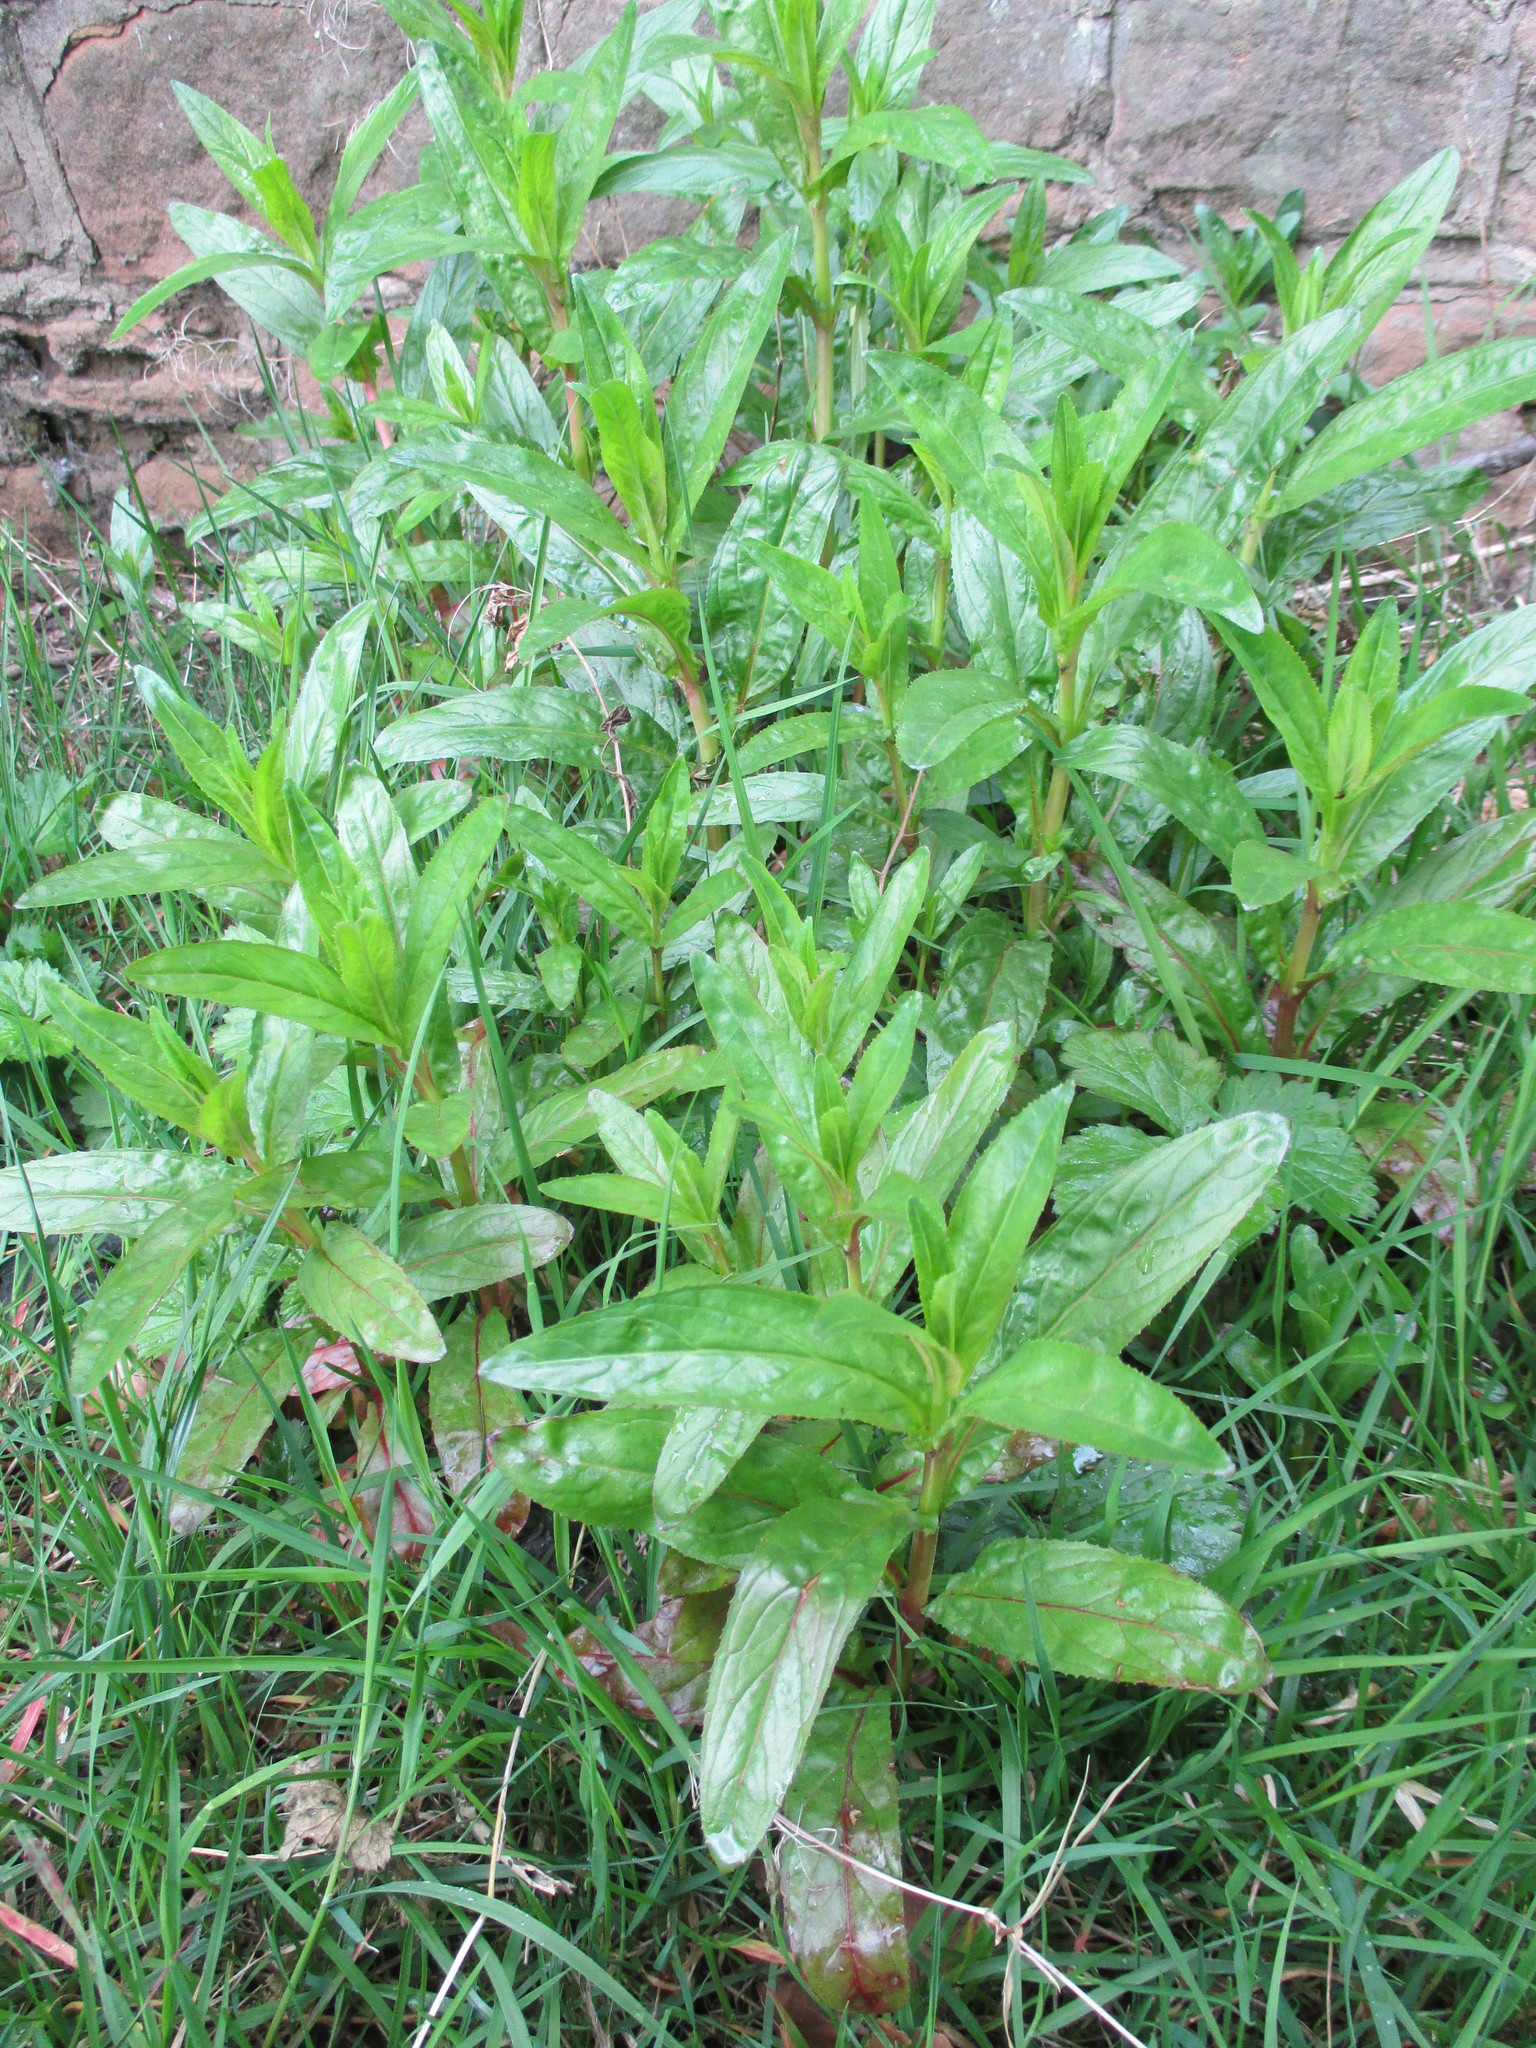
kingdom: Plantae
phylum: Tracheophyta
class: Magnoliopsida
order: Myrtales
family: Onagraceae
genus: Epilobium
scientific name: Epilobium ciliatum
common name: American willowherb
